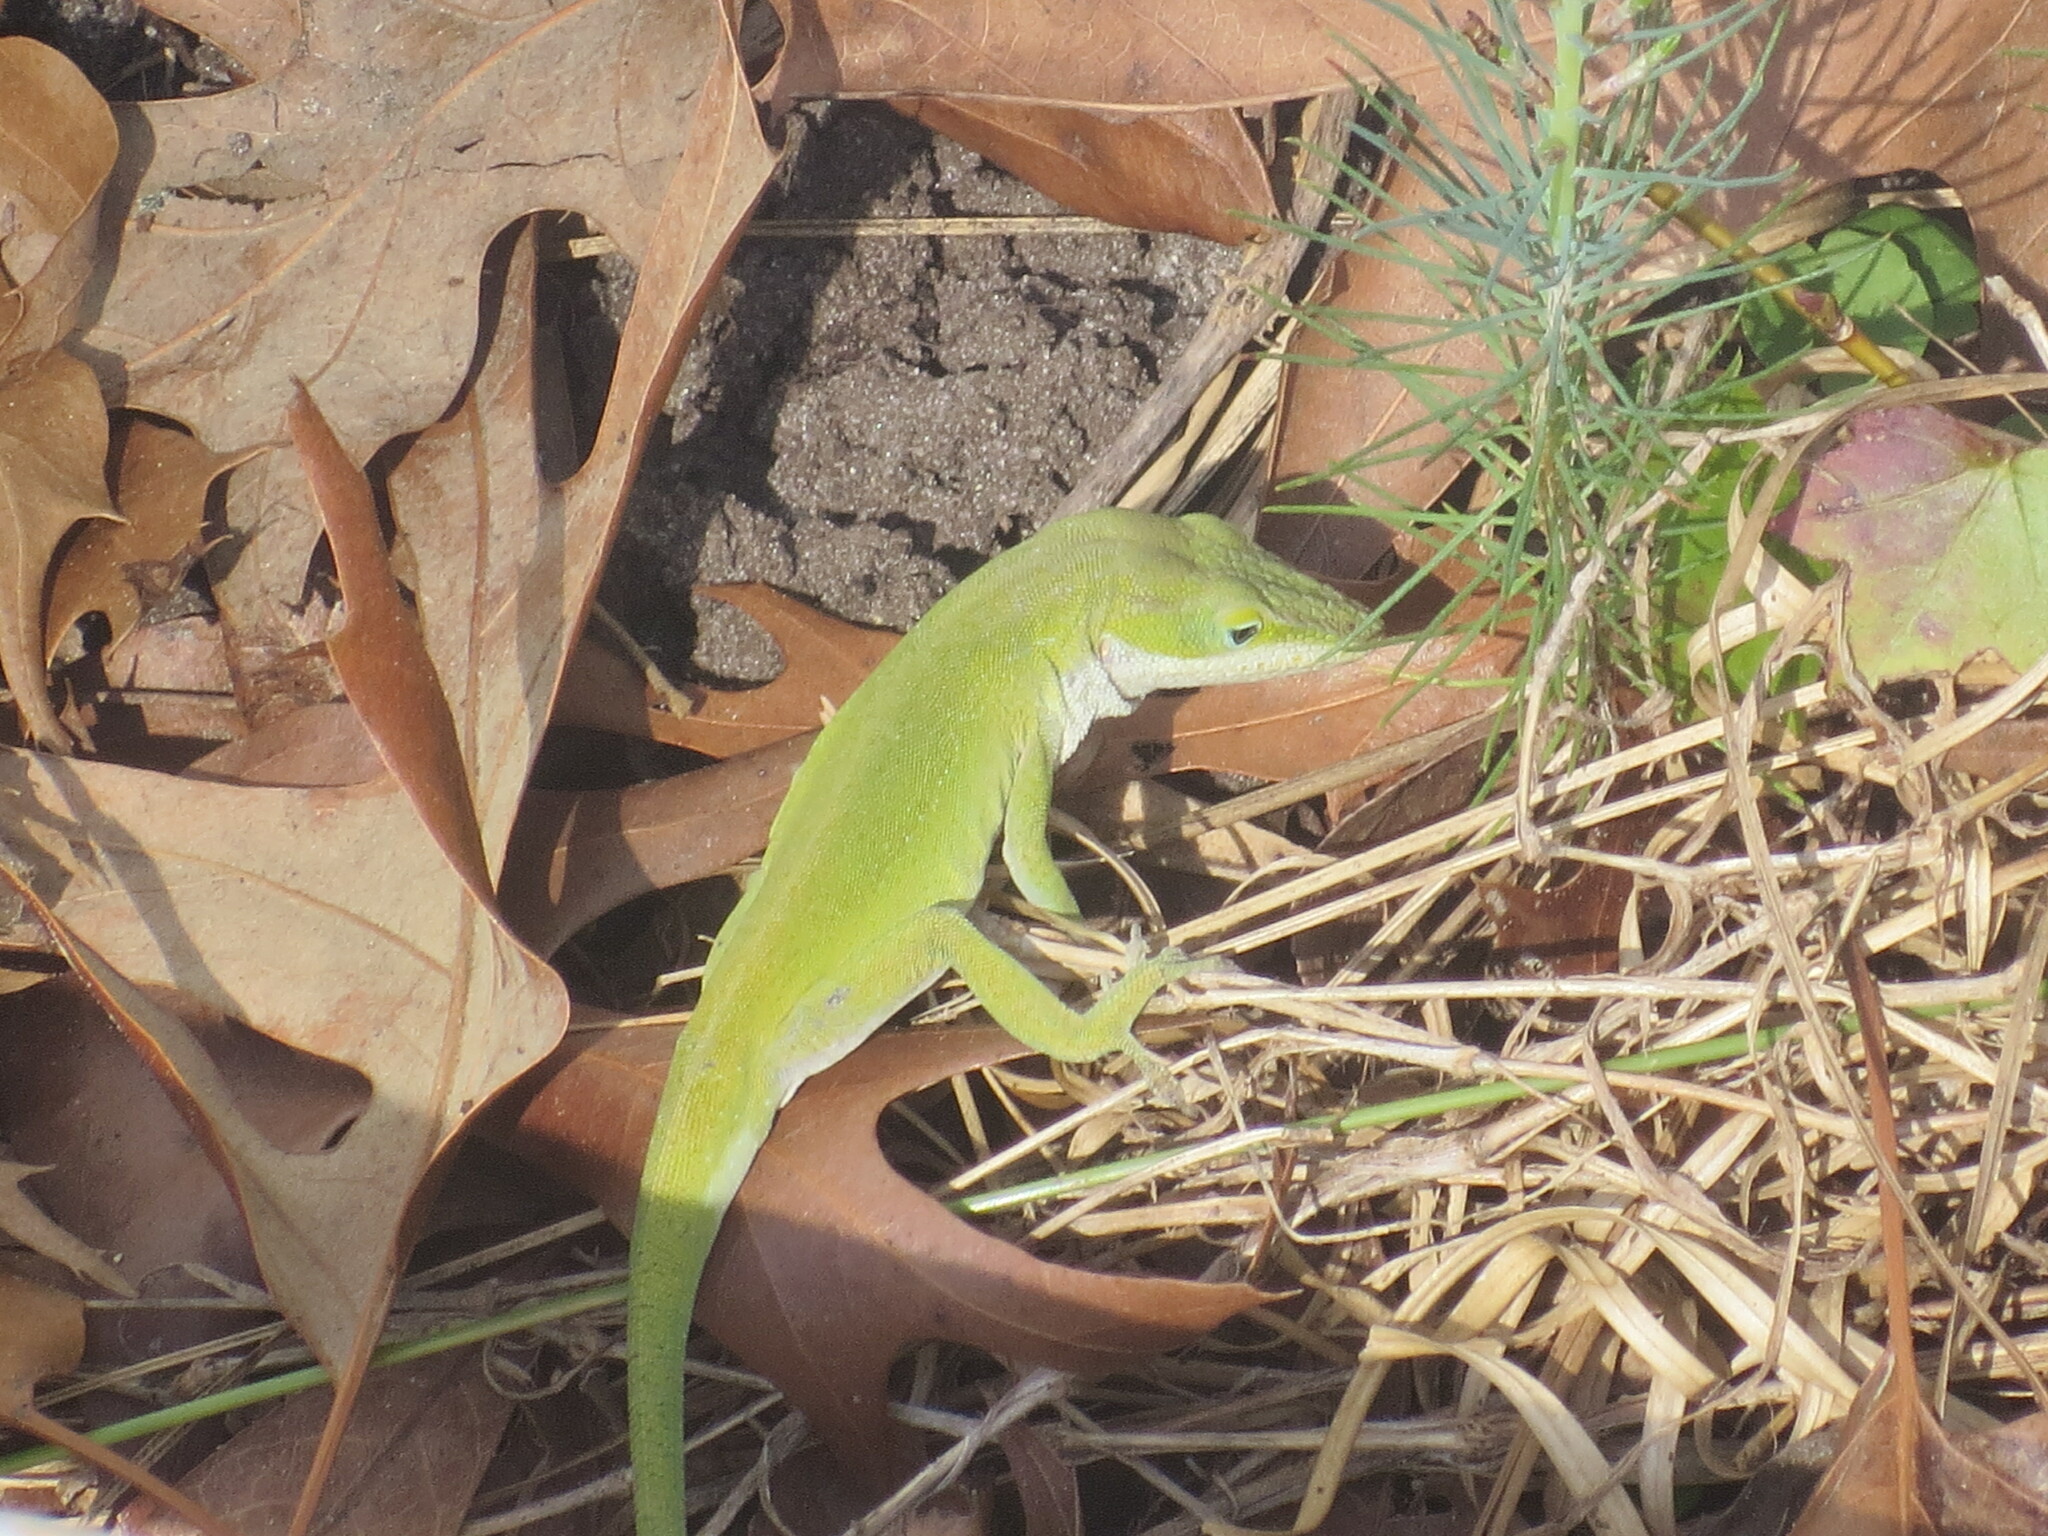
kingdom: Animalia
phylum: Chordata
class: Squamata
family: Dactyloidae
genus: Anolis
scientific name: Anolis carolinensis
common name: Green anole
